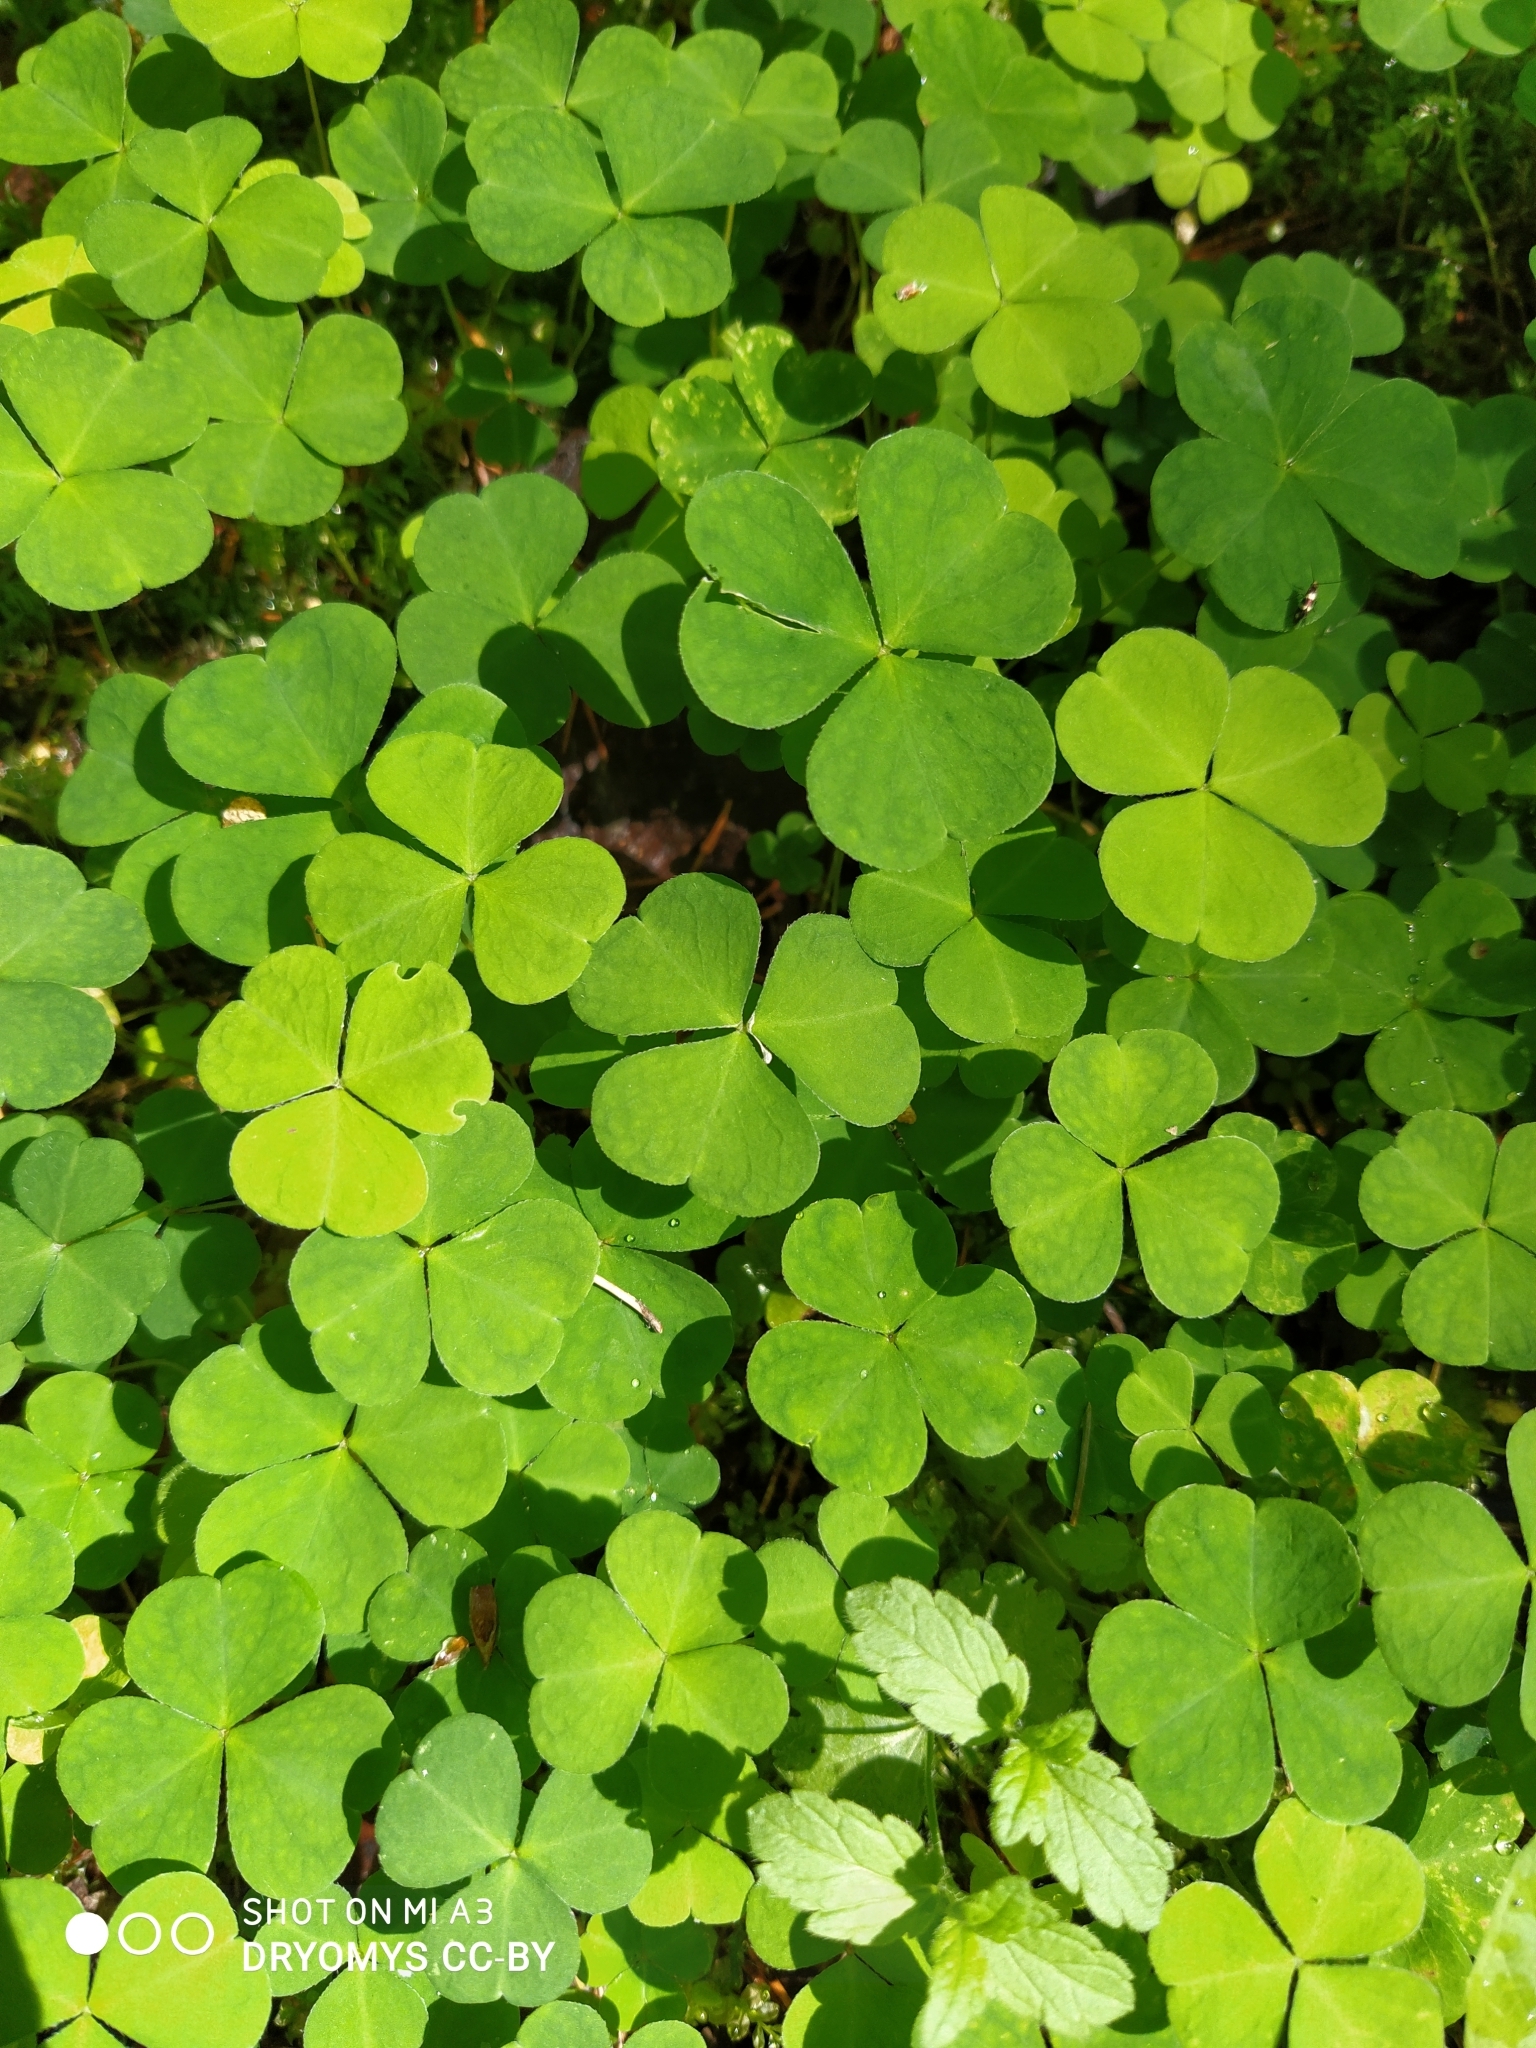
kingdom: Plantae
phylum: Tracheophyta
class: Magnoliopsida
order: Oxalidales
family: Oxalidaceae
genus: Oxalis
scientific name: Oxalis acetosella
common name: Wood-sorrel
